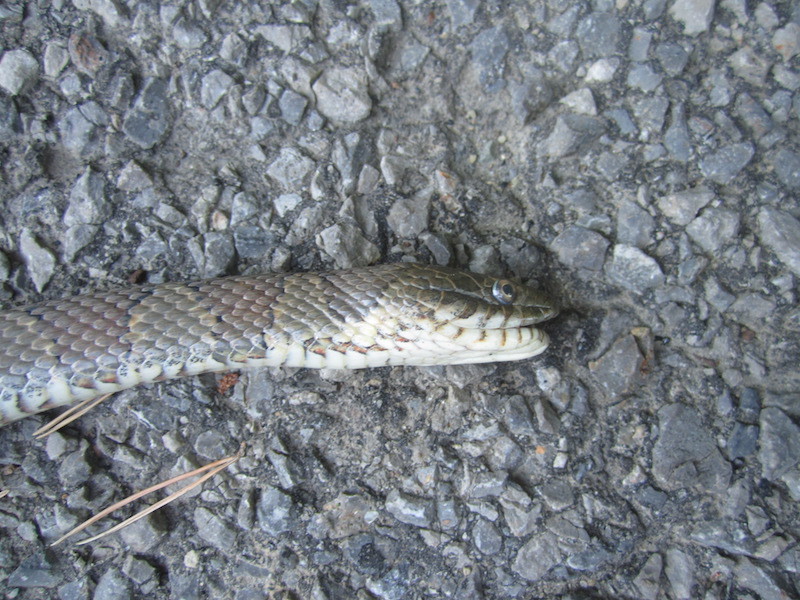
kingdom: Animalia
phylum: Chordata
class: Squamata
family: Colubridae
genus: Nerodia
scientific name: Nerodia sipedon
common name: Northern water snake
